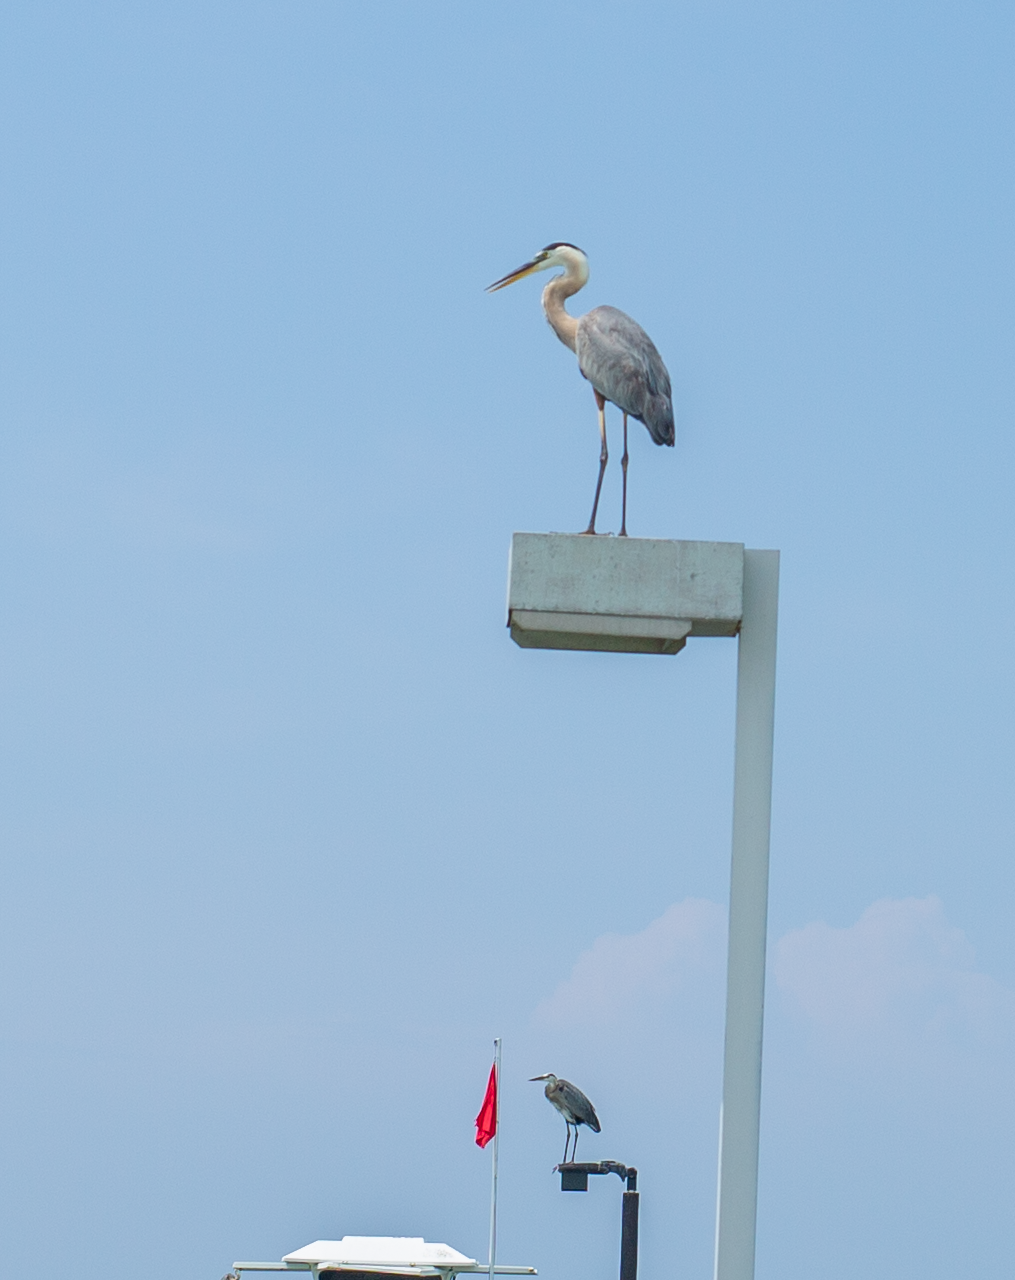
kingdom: Animalia
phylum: Chordata
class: Aves
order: Pelecaniformes
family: Ardeidae
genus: Ardea
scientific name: Ardea herodias
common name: Great blue heron
